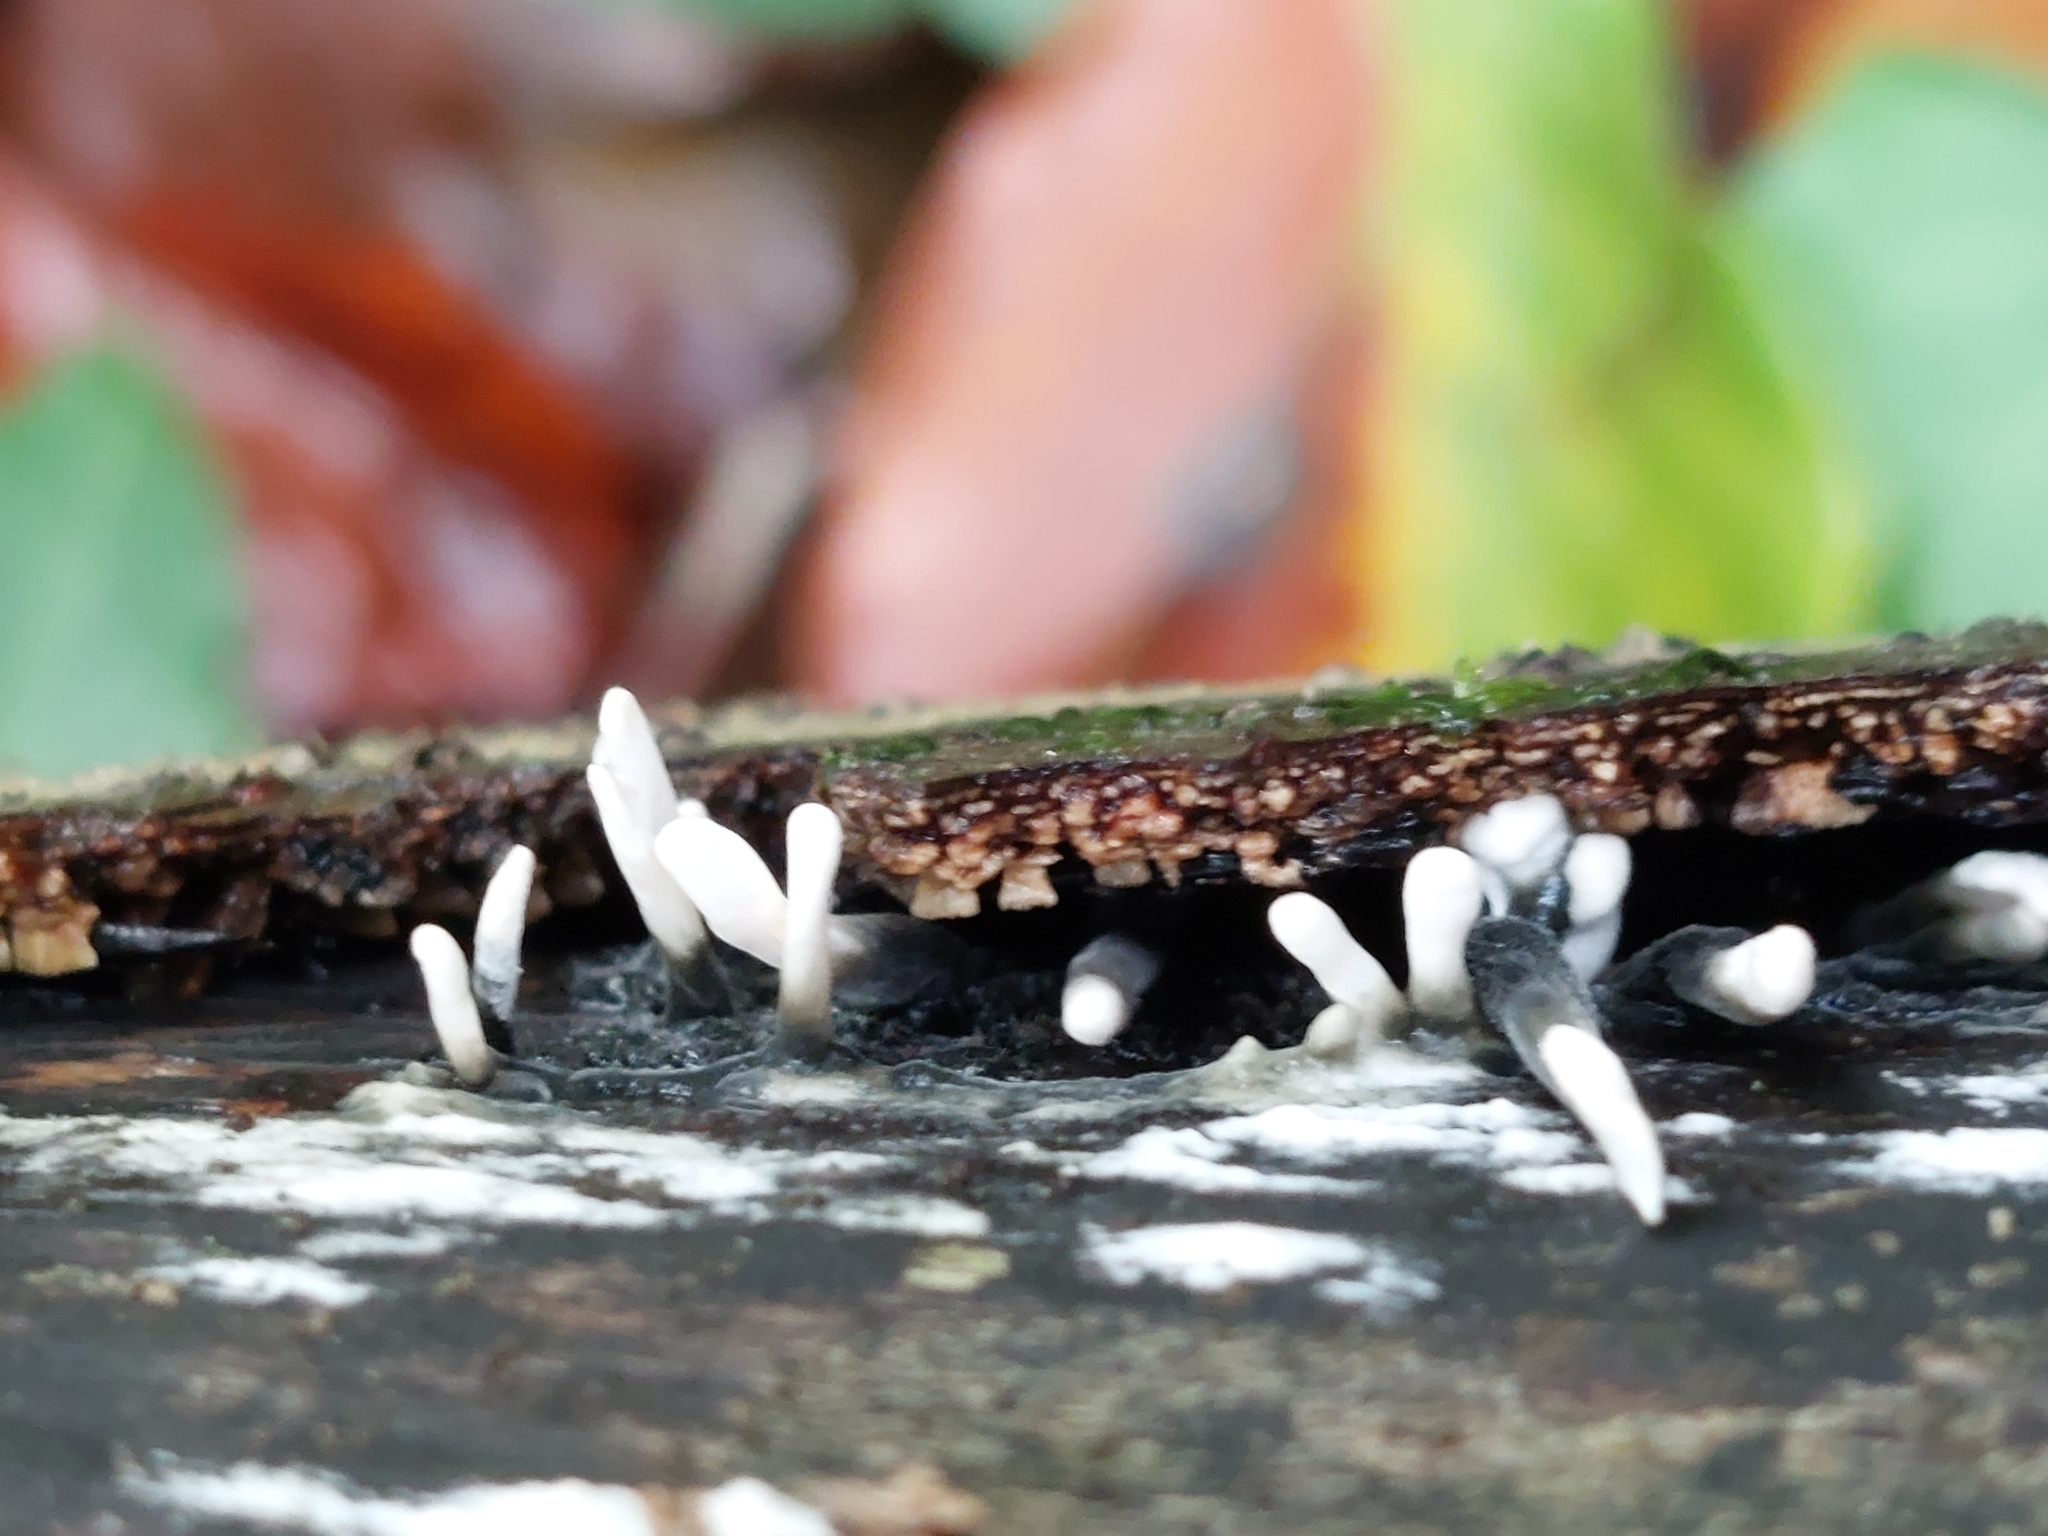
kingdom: Fungi
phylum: Ascomycota
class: Sordariomycetes
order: Xylariales
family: Xylariaceae
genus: Xylaria
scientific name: Xylaria hypoxylon
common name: Candle-snuff fungus
